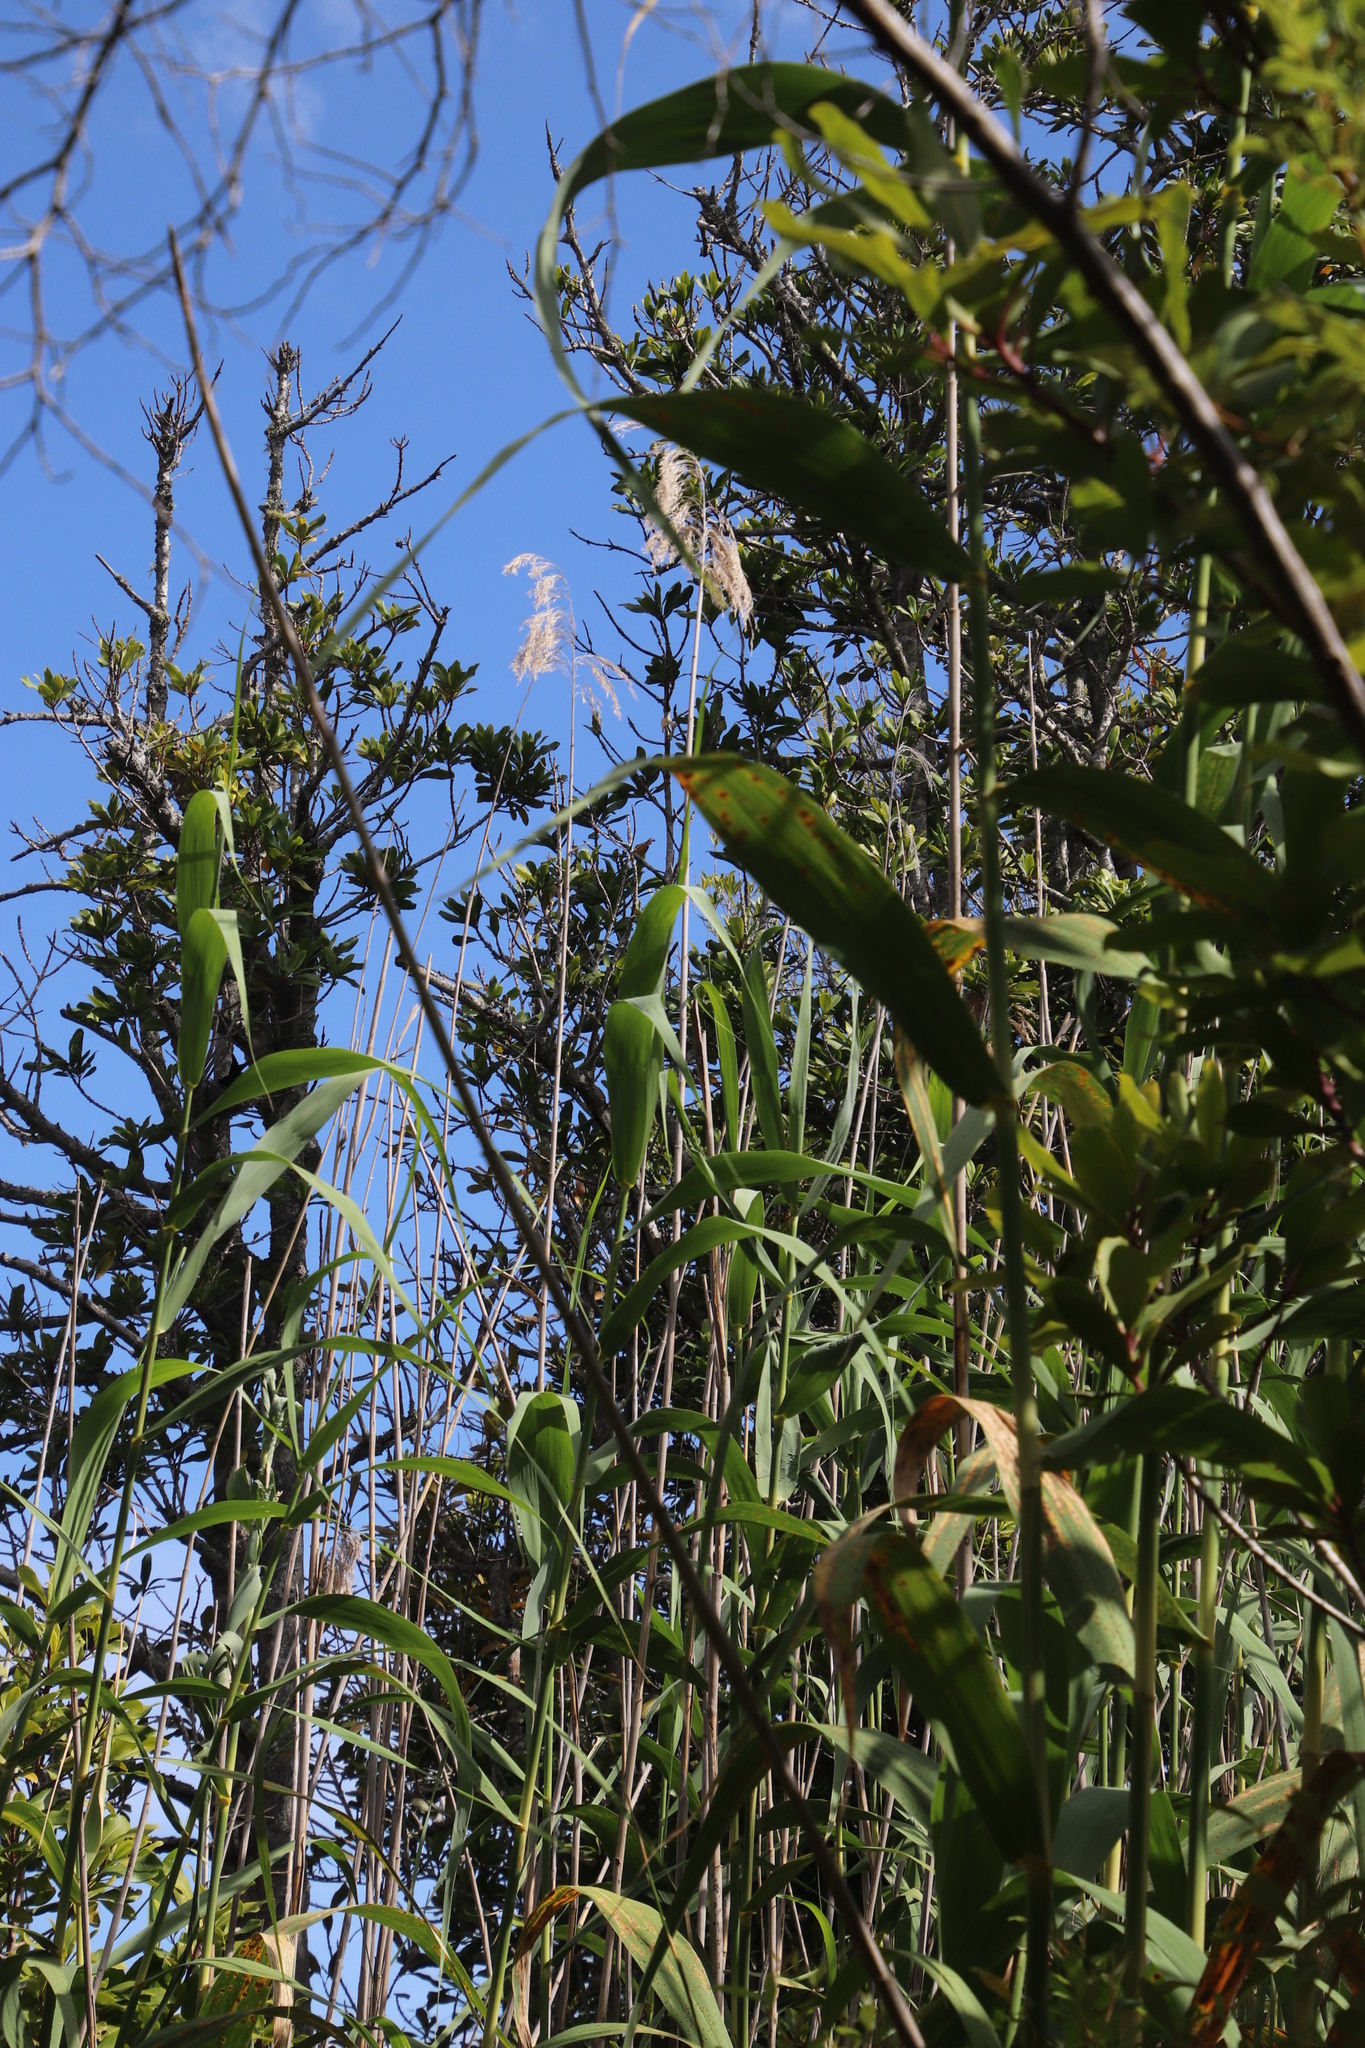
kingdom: Plantae
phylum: Tracheophyta
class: Liliopsida
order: Poales
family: Poaceae
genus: Phragmites
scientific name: Phragmites australis
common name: Common reed
